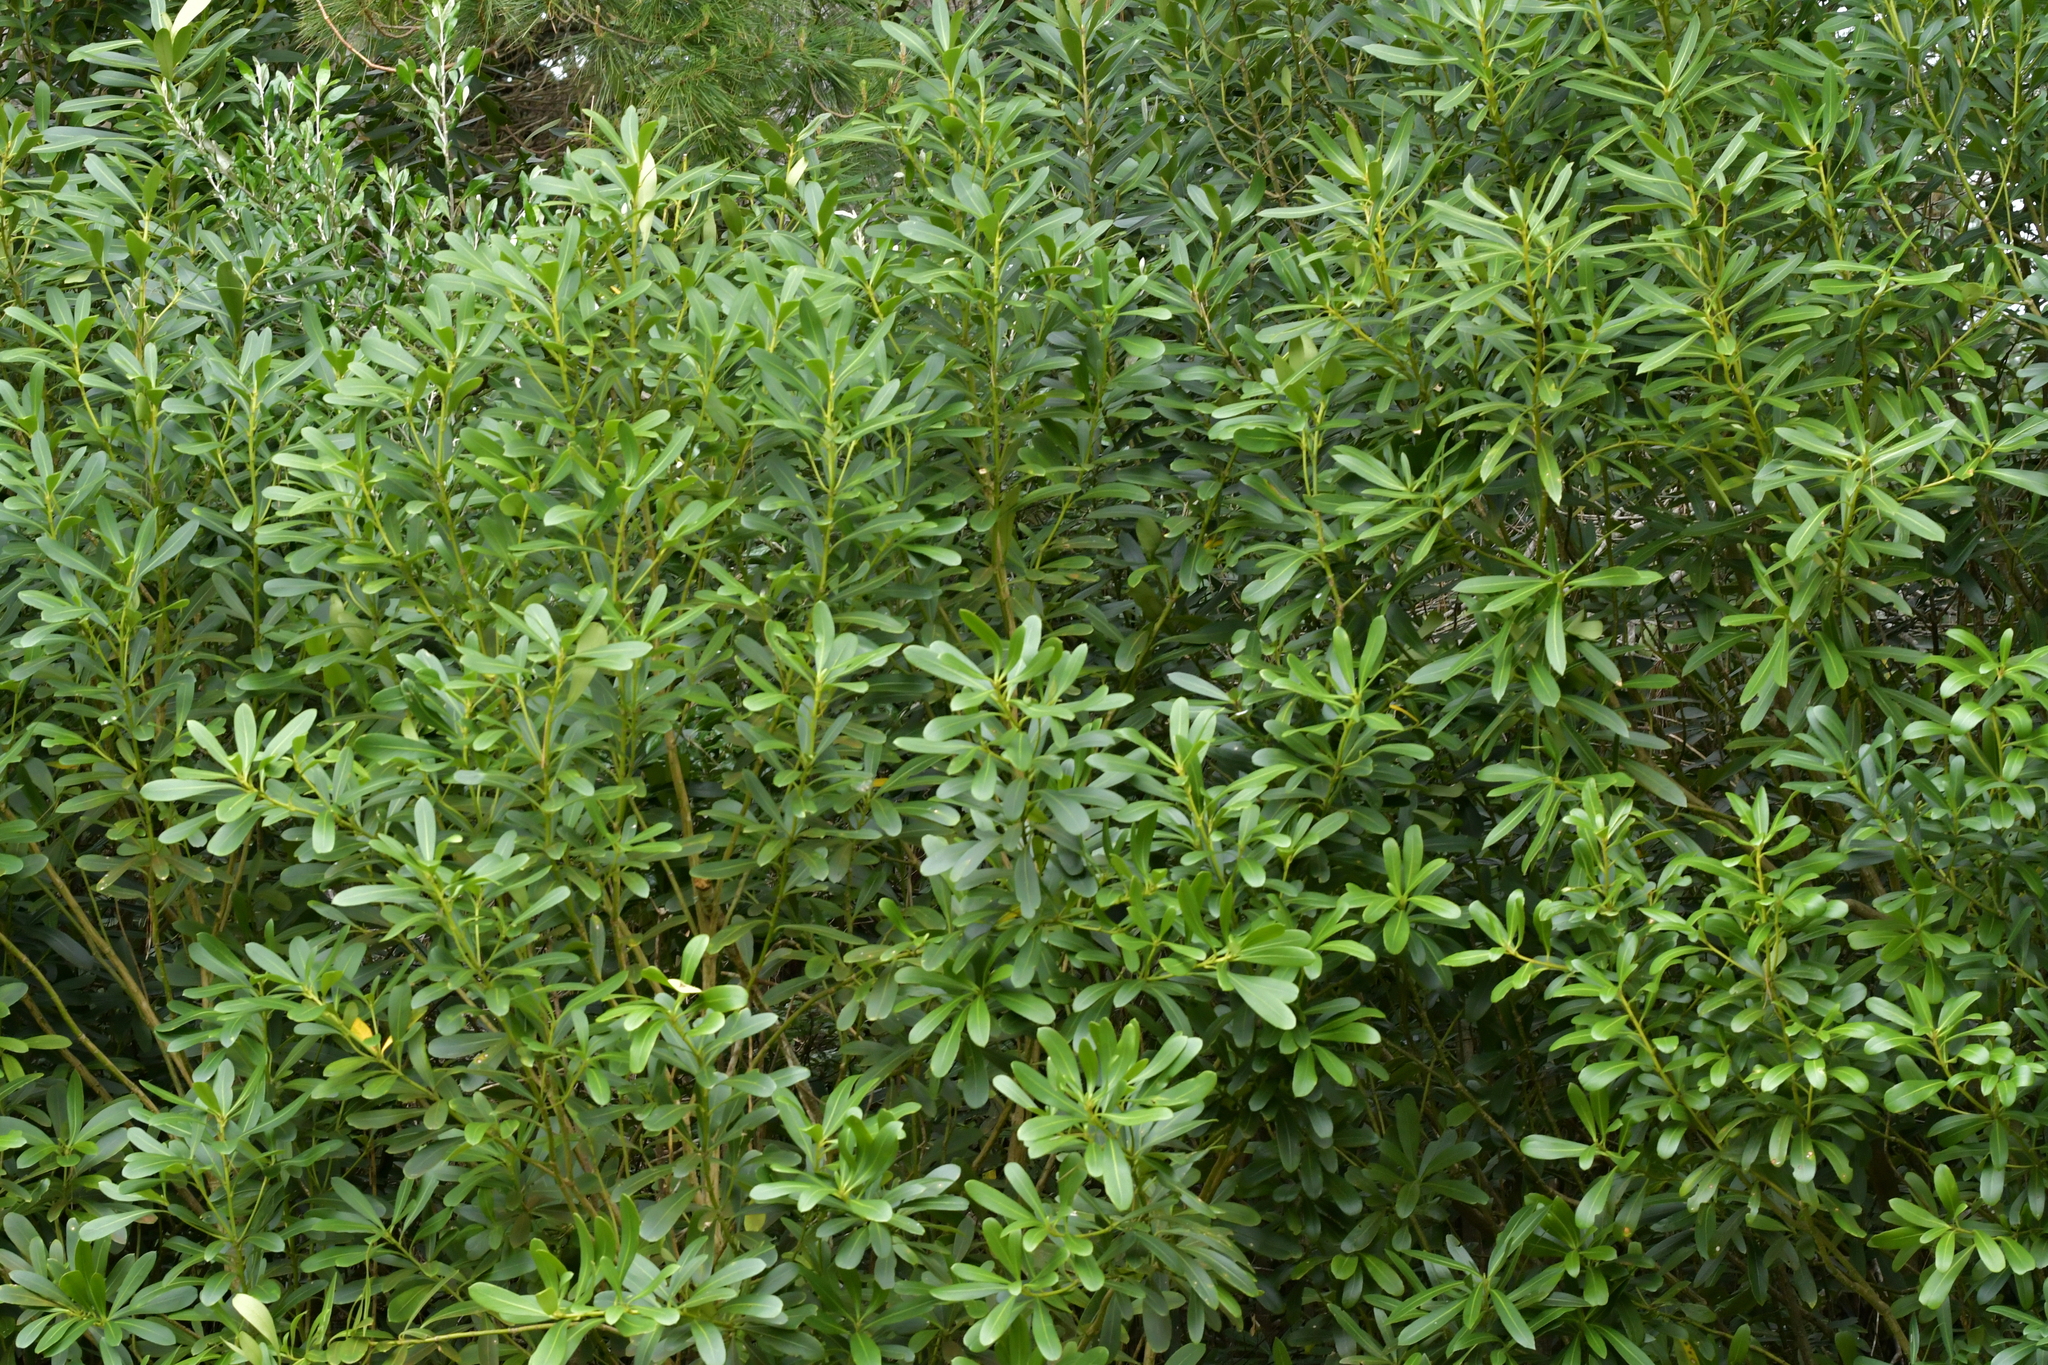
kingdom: Plantae
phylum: Tracheophyta
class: Magnoliopsida
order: Apiales
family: Araliaceae
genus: Pseudopanax
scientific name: Pseudopanax chathamicus
